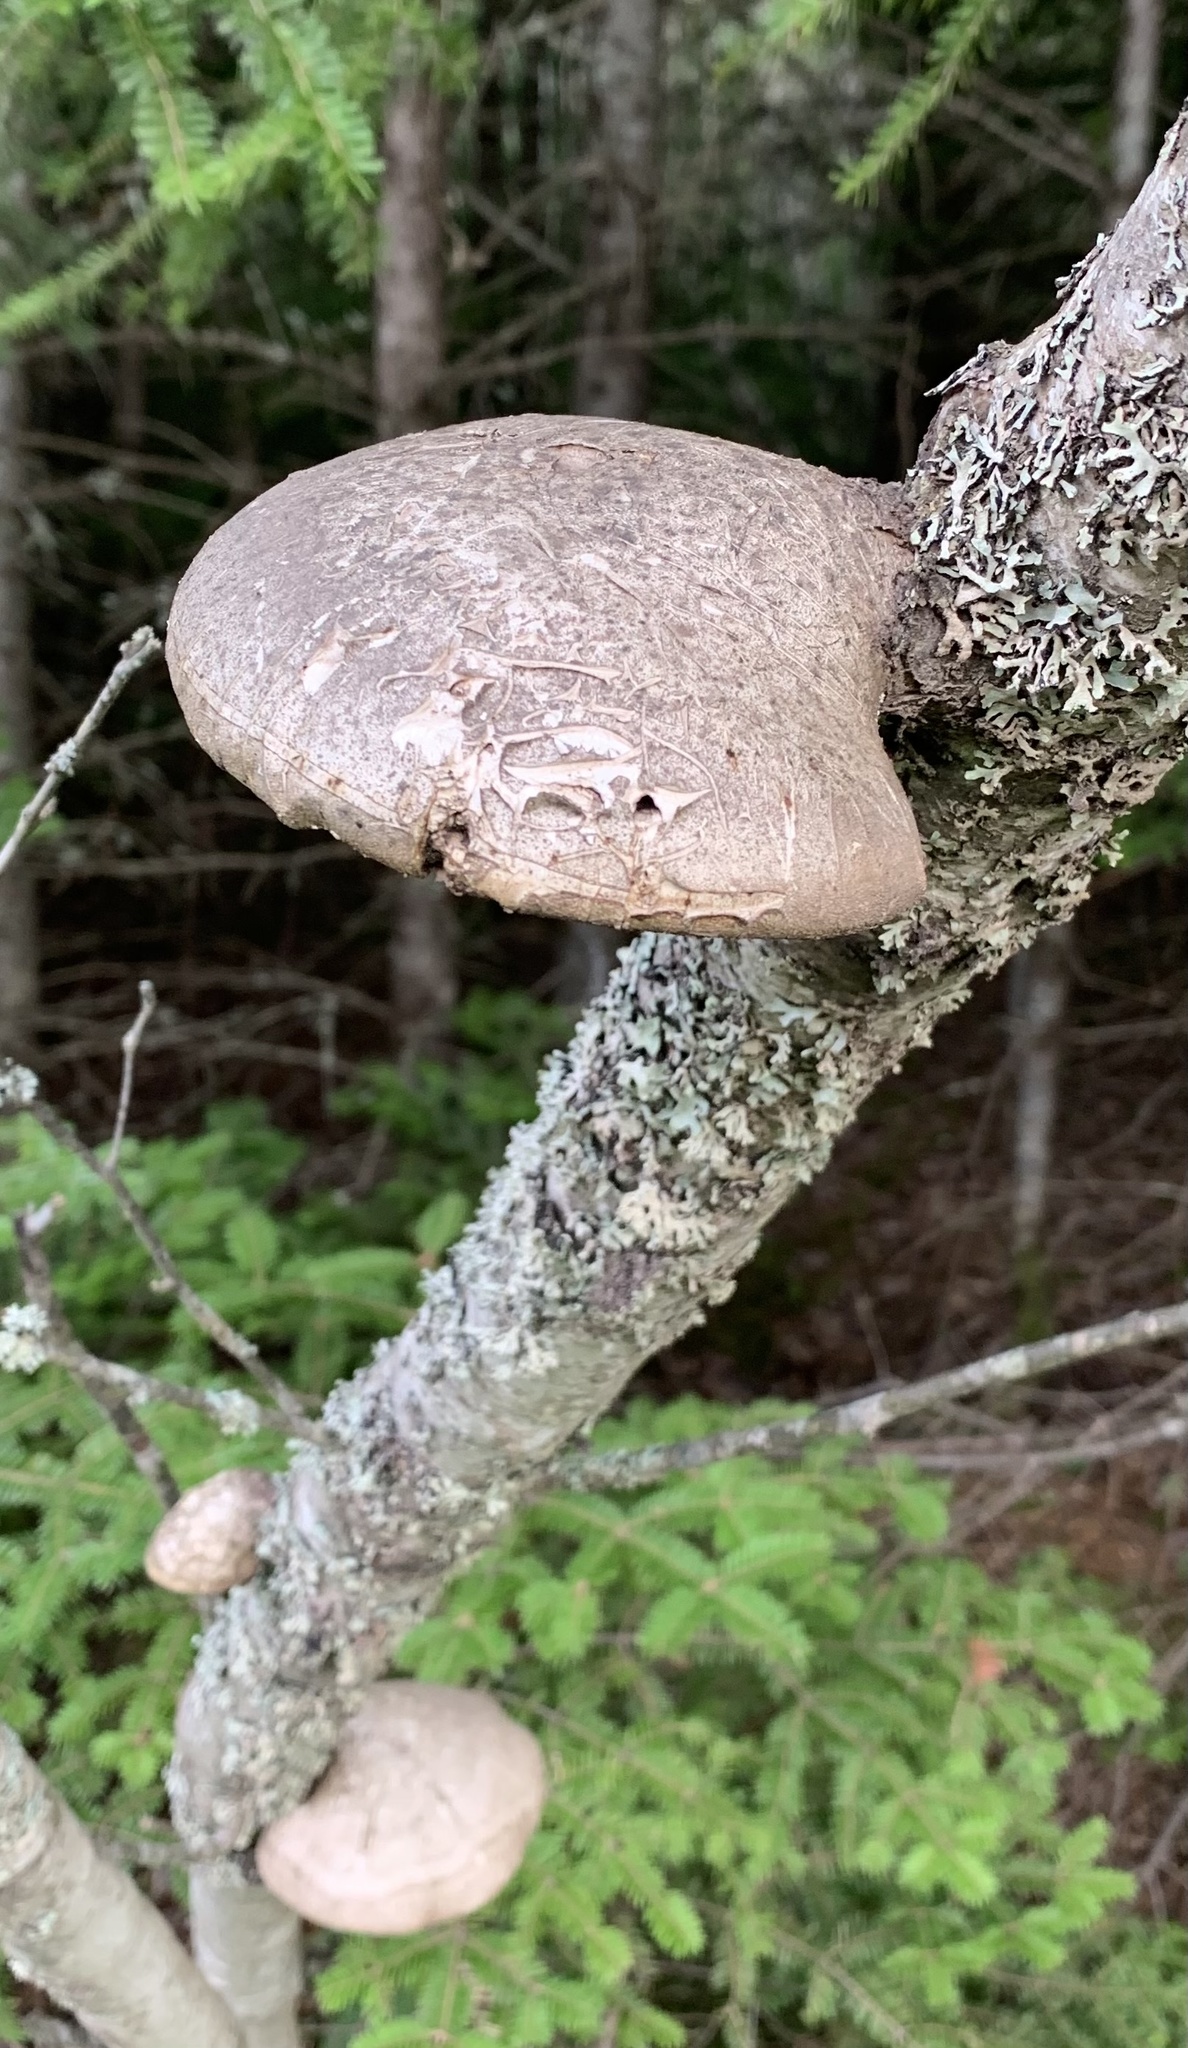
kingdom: Fungi
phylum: Basidiomycota
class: Agaricomycetes
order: Polyporales
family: Fomitopsidaceae
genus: Fomitopsis
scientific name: Fomitopsis betulina
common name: Birch polypore
